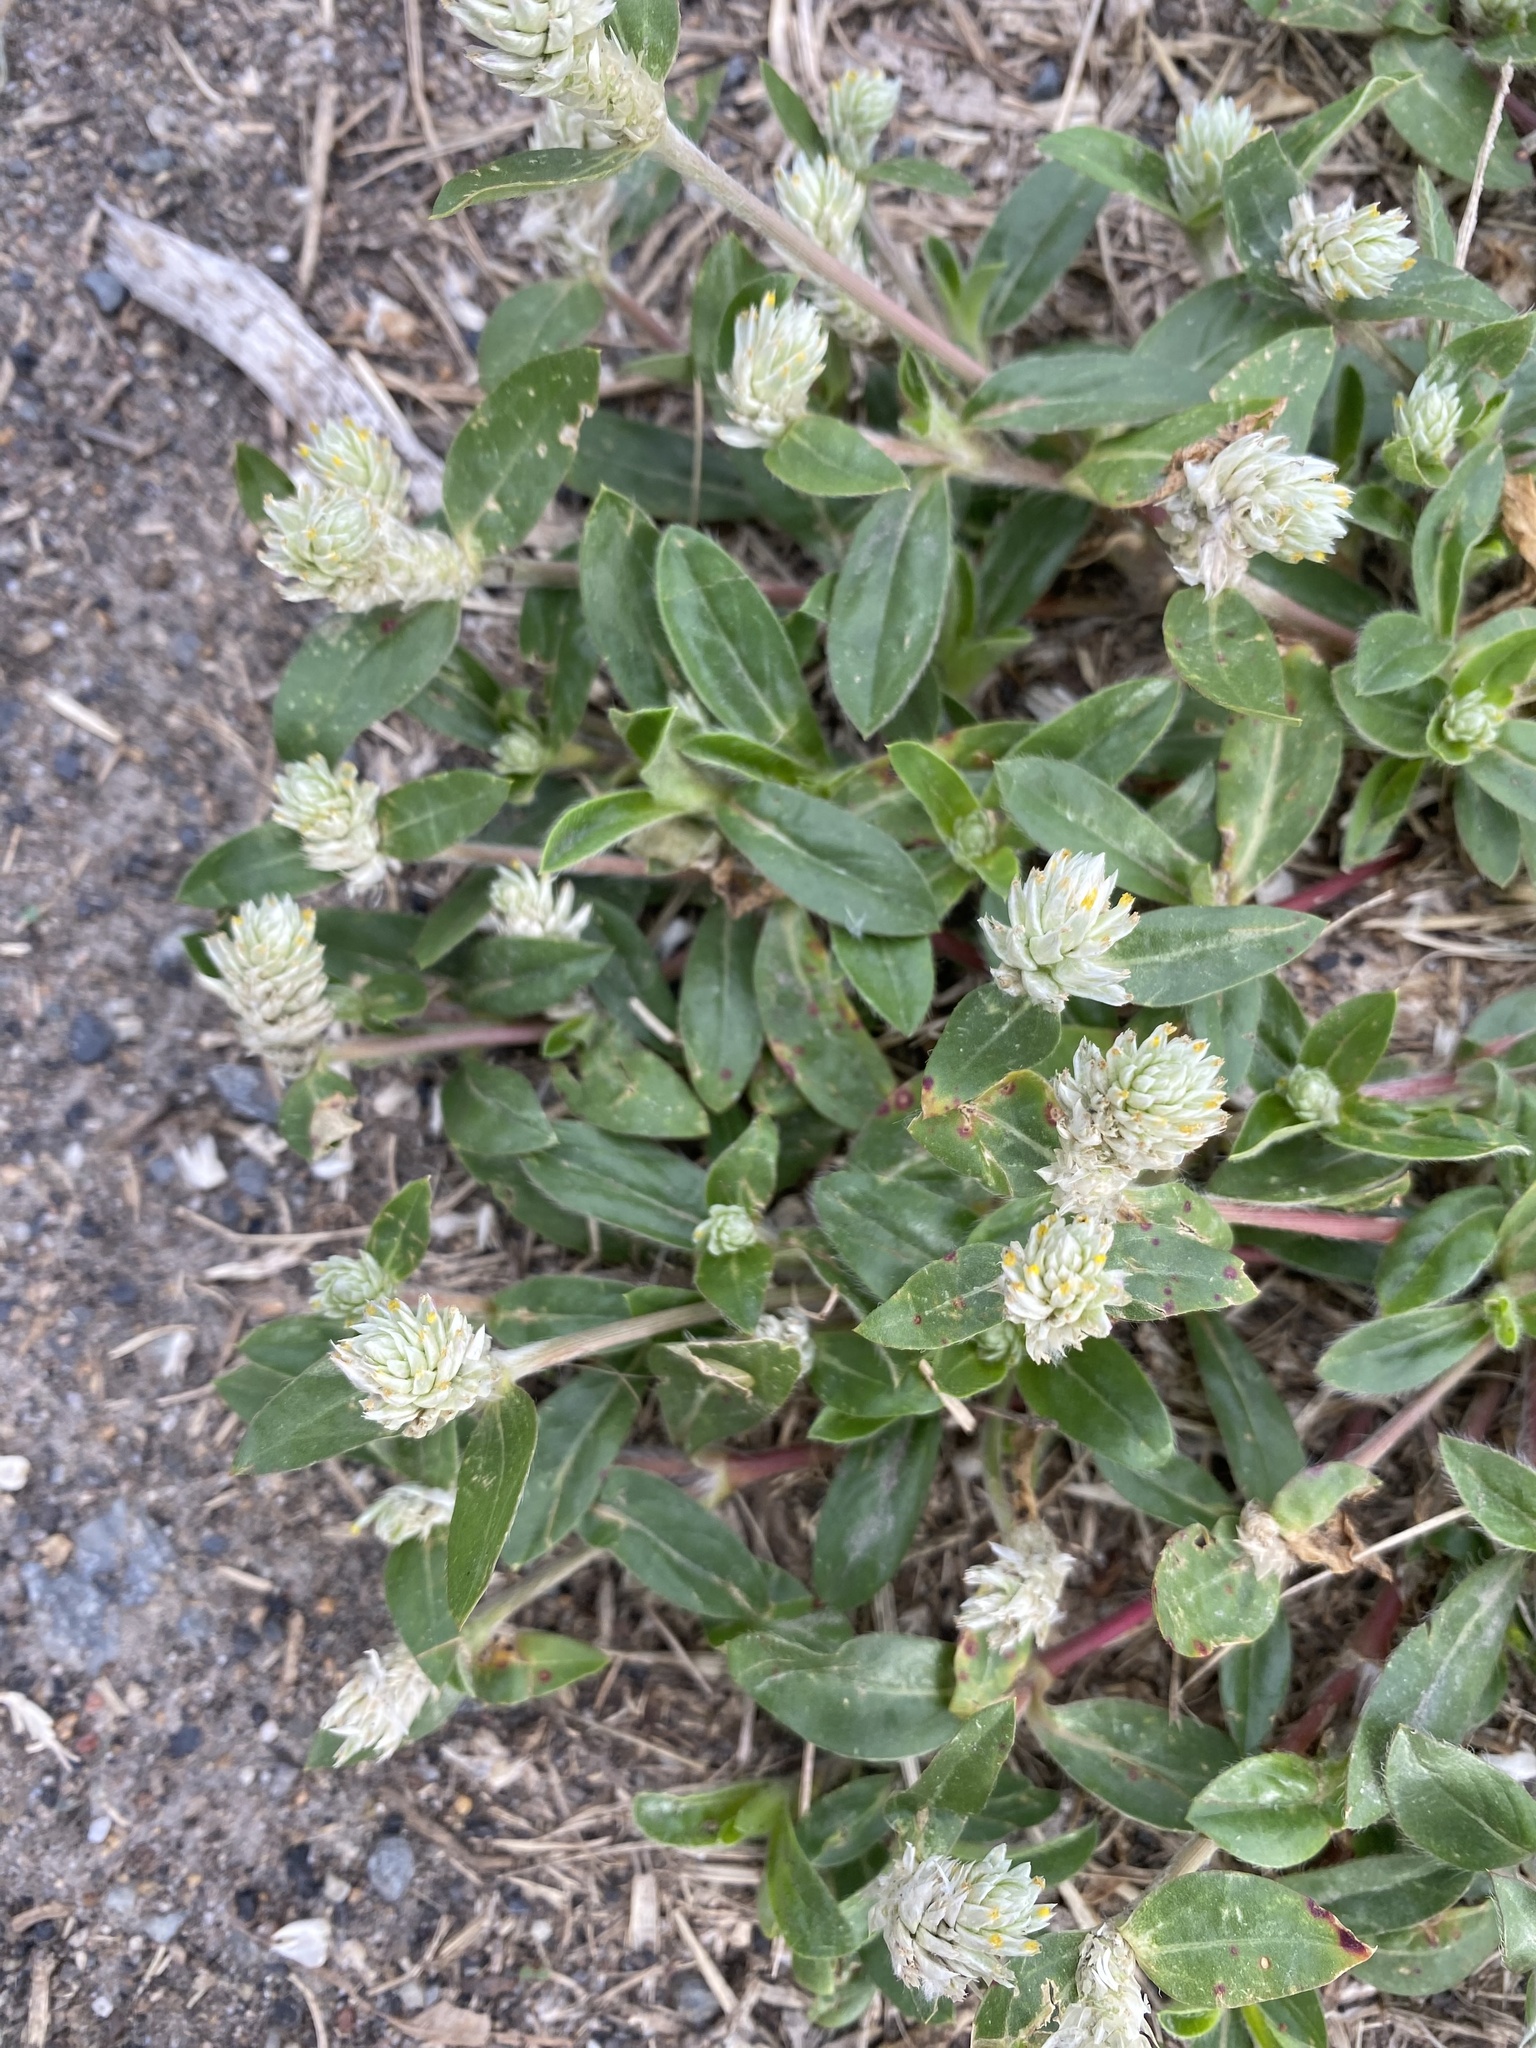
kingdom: Plantae
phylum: Tracheophyta
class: Magnoliopsida
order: Caryophyllales
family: Amaranthaceae
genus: Gomphrena
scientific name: Gomphrena celosioides
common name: Gomphrena-weed
